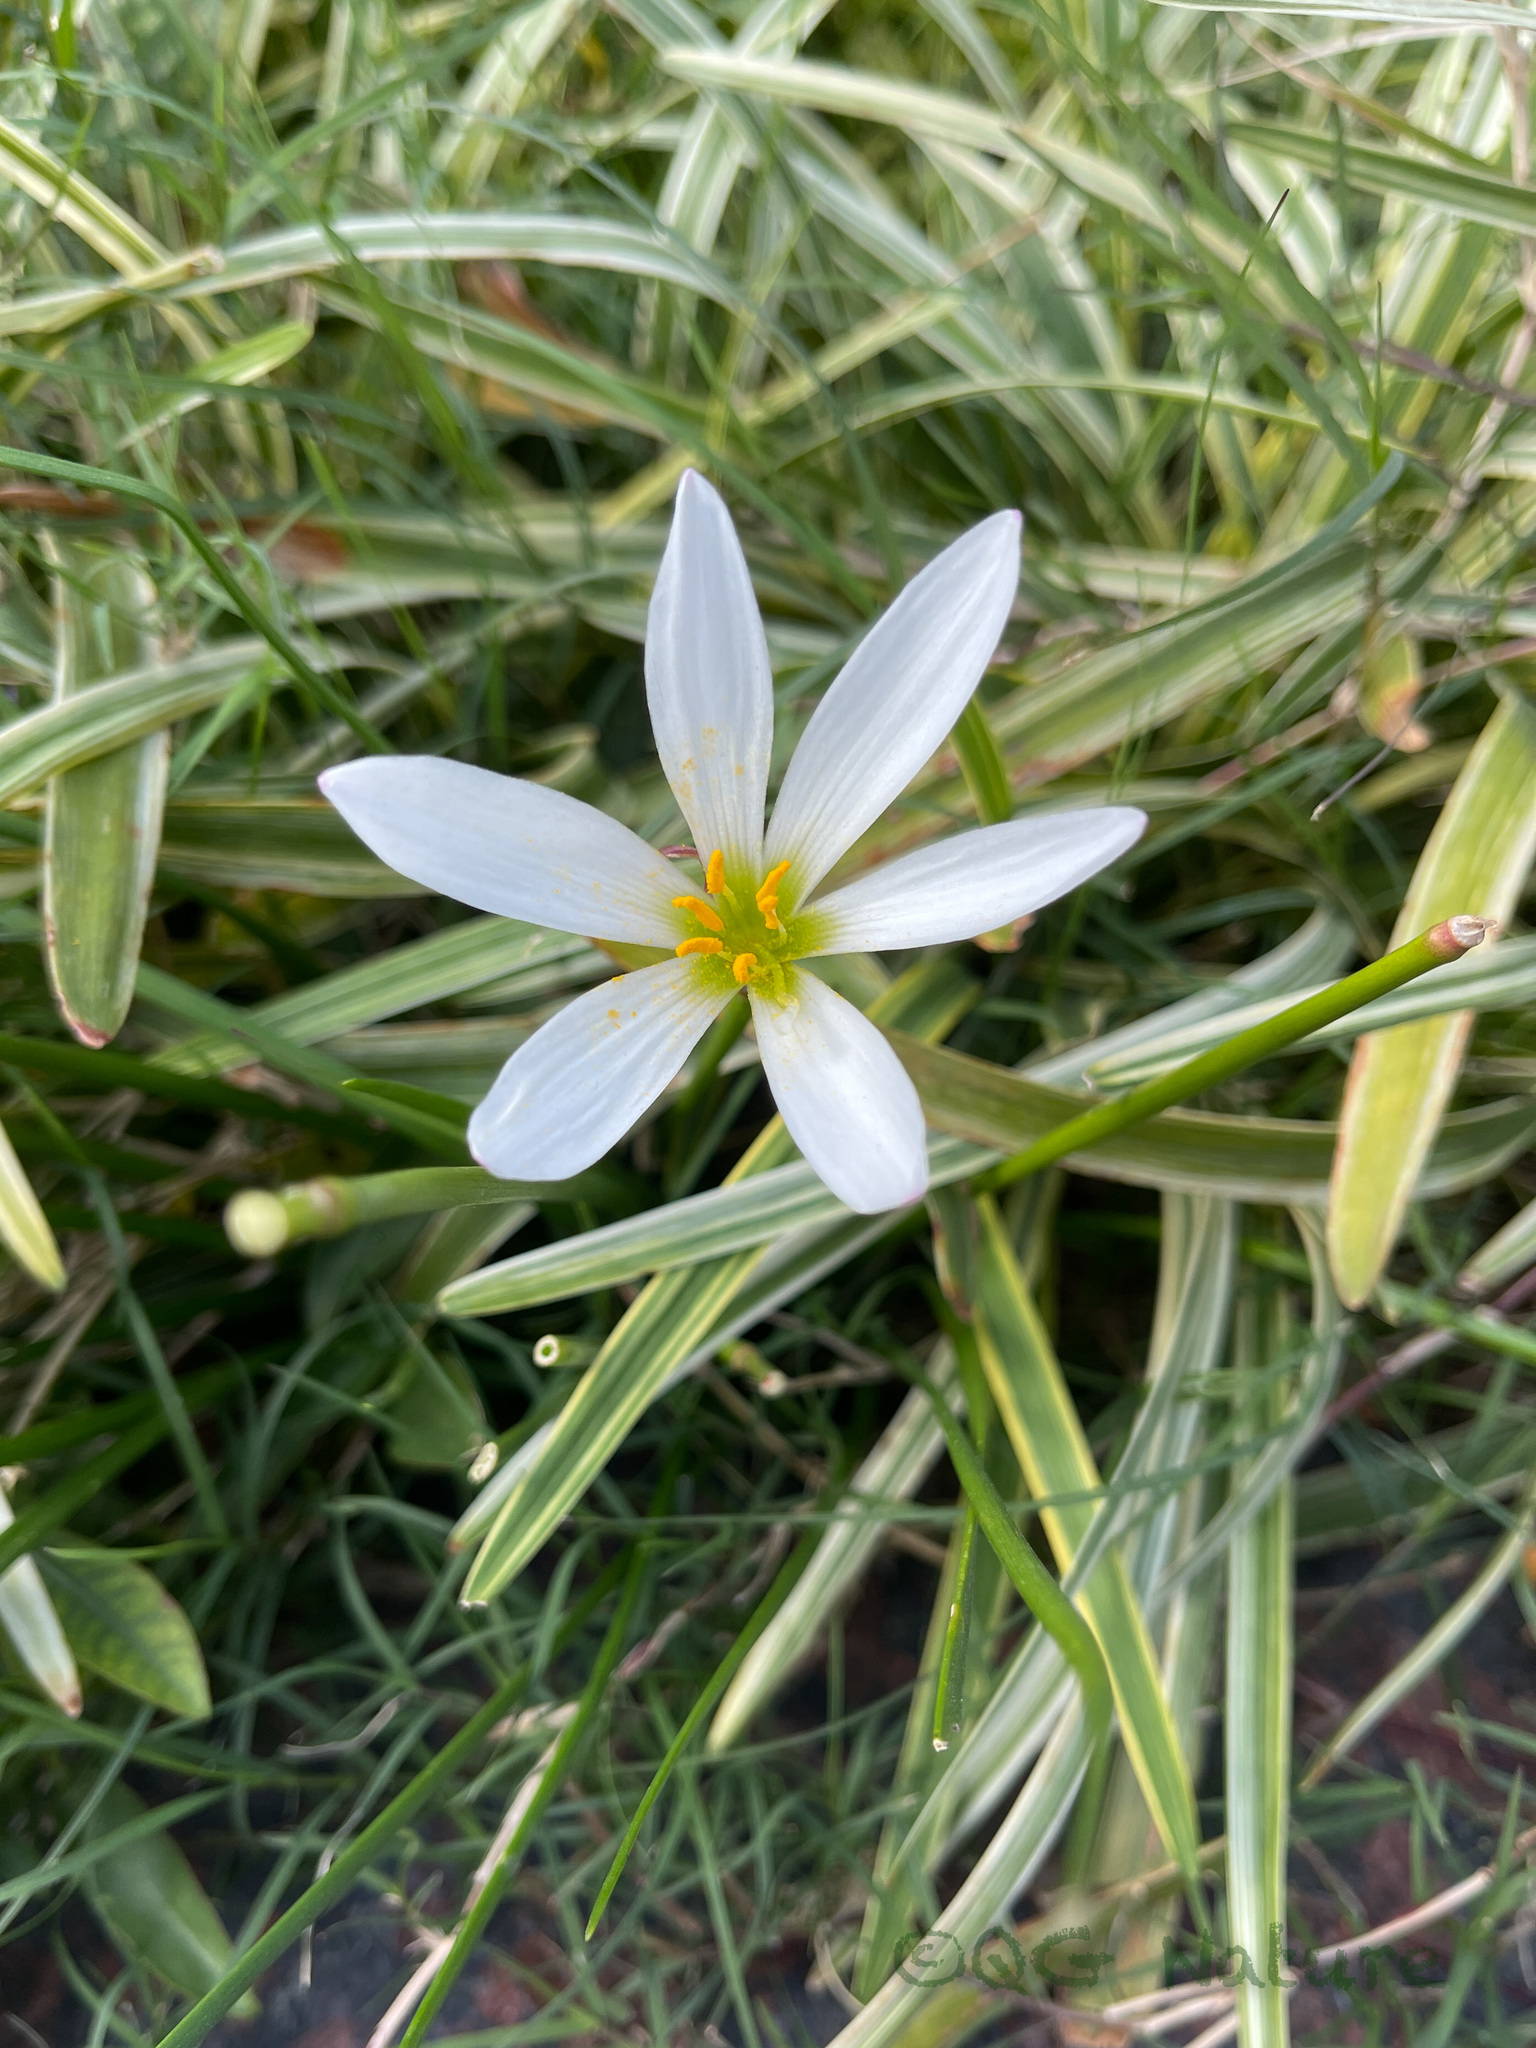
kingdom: Plantae
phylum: Tracheophyta
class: Liliopsida
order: Asparagales
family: Amaryllidaceae
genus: Zephyranthes
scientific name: Zephyranthes candida
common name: Autumn zephyrlily
